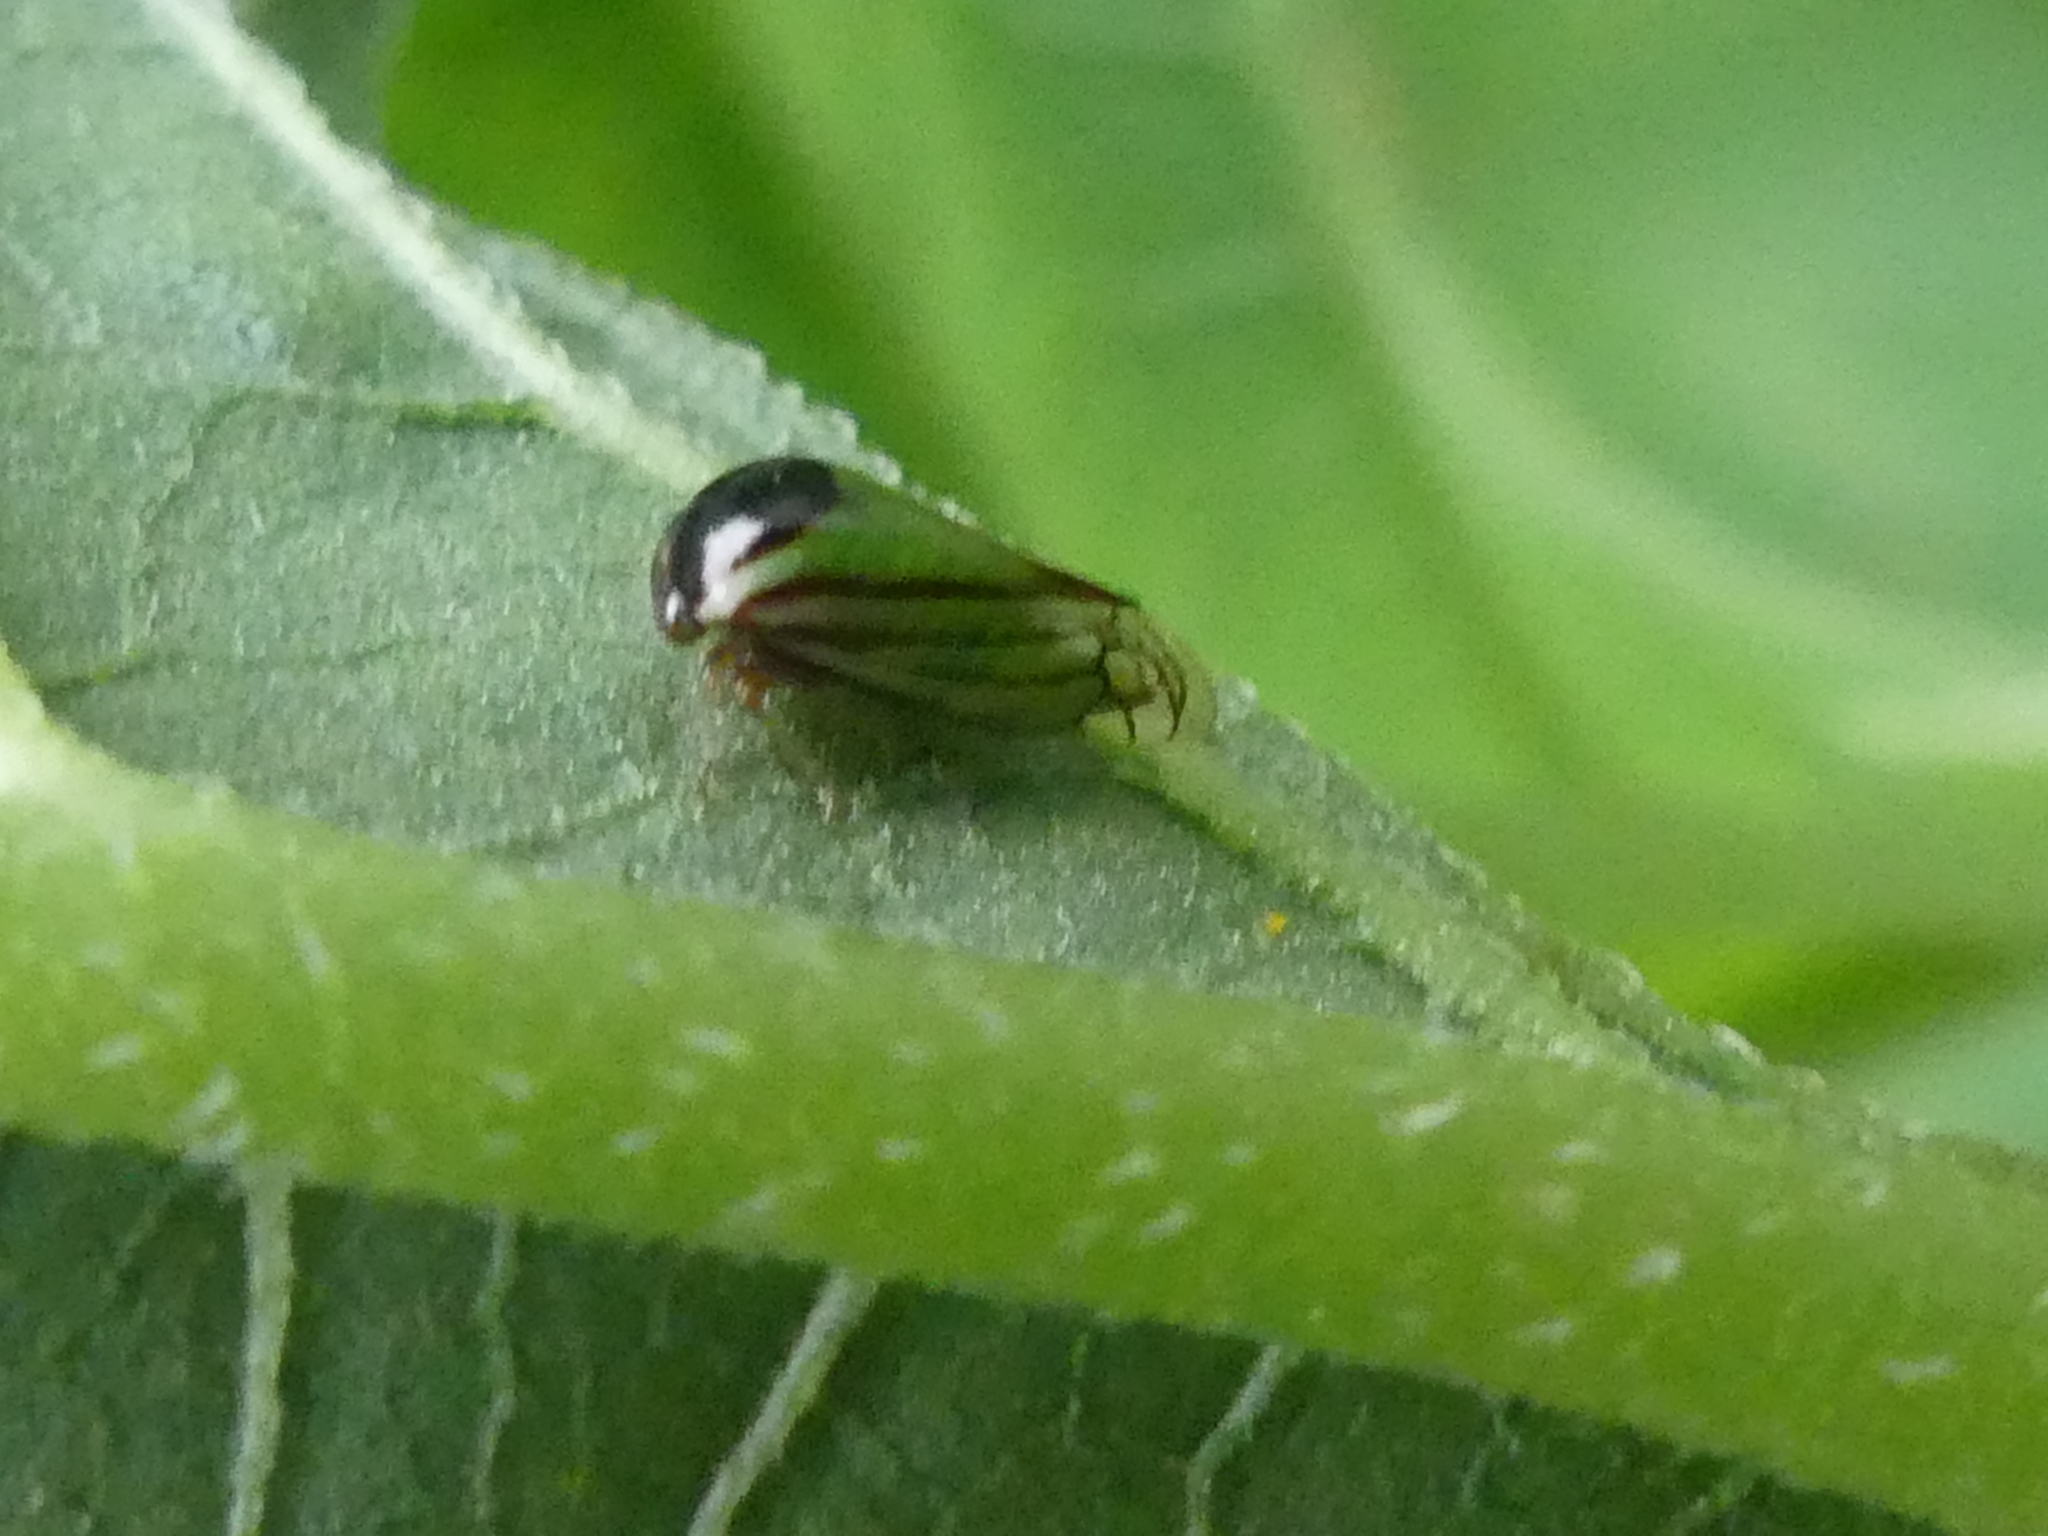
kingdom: Animalia
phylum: Arthropoda
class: Insecta
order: Hemiptera
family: Membracidae
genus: Acutalis
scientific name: Acutalis tartarea
